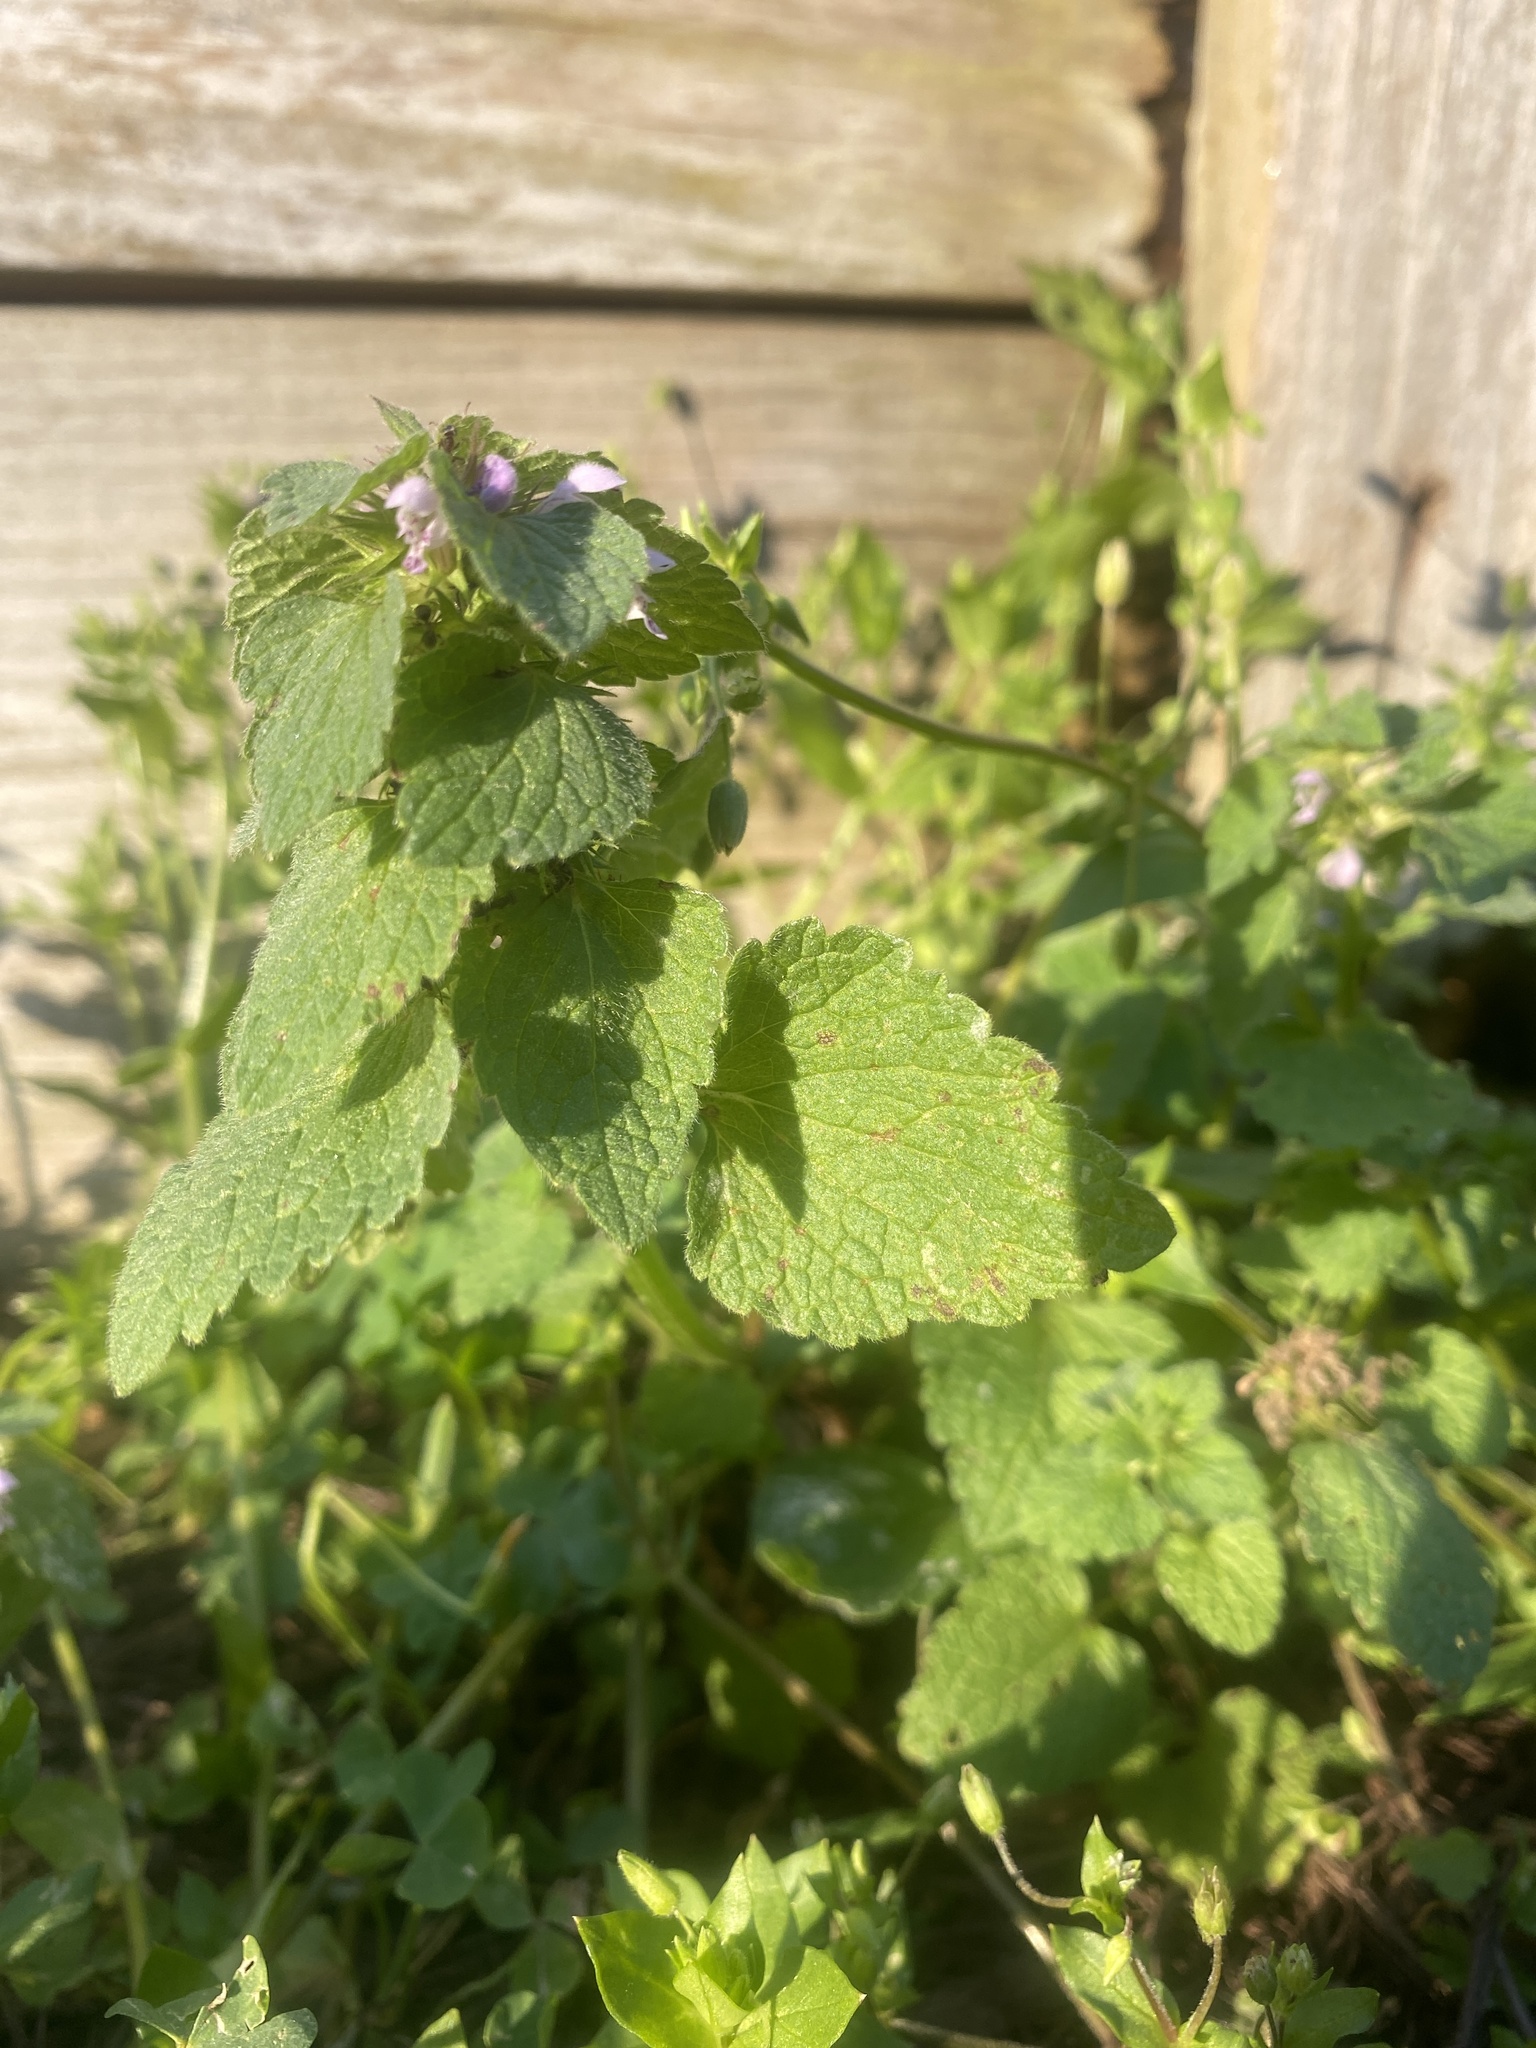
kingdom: Plantae
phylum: Tracheophyta
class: Magnoliopsida
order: Lamiales
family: Lamiaceae
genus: Lamium
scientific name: Lamium purpureum
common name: Red dead-nettle
